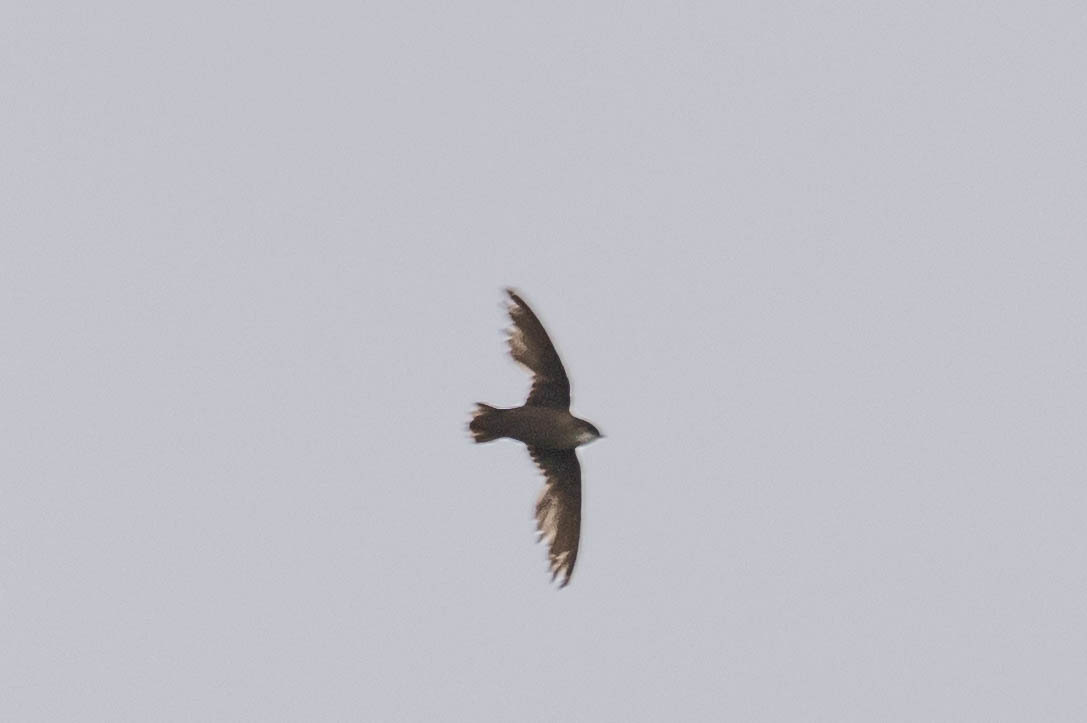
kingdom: Animalia
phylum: Chordata
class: Aves
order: Apodiformes
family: Apodidae
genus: Chaetura
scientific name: Chaetura pelagica
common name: Chimney swift
